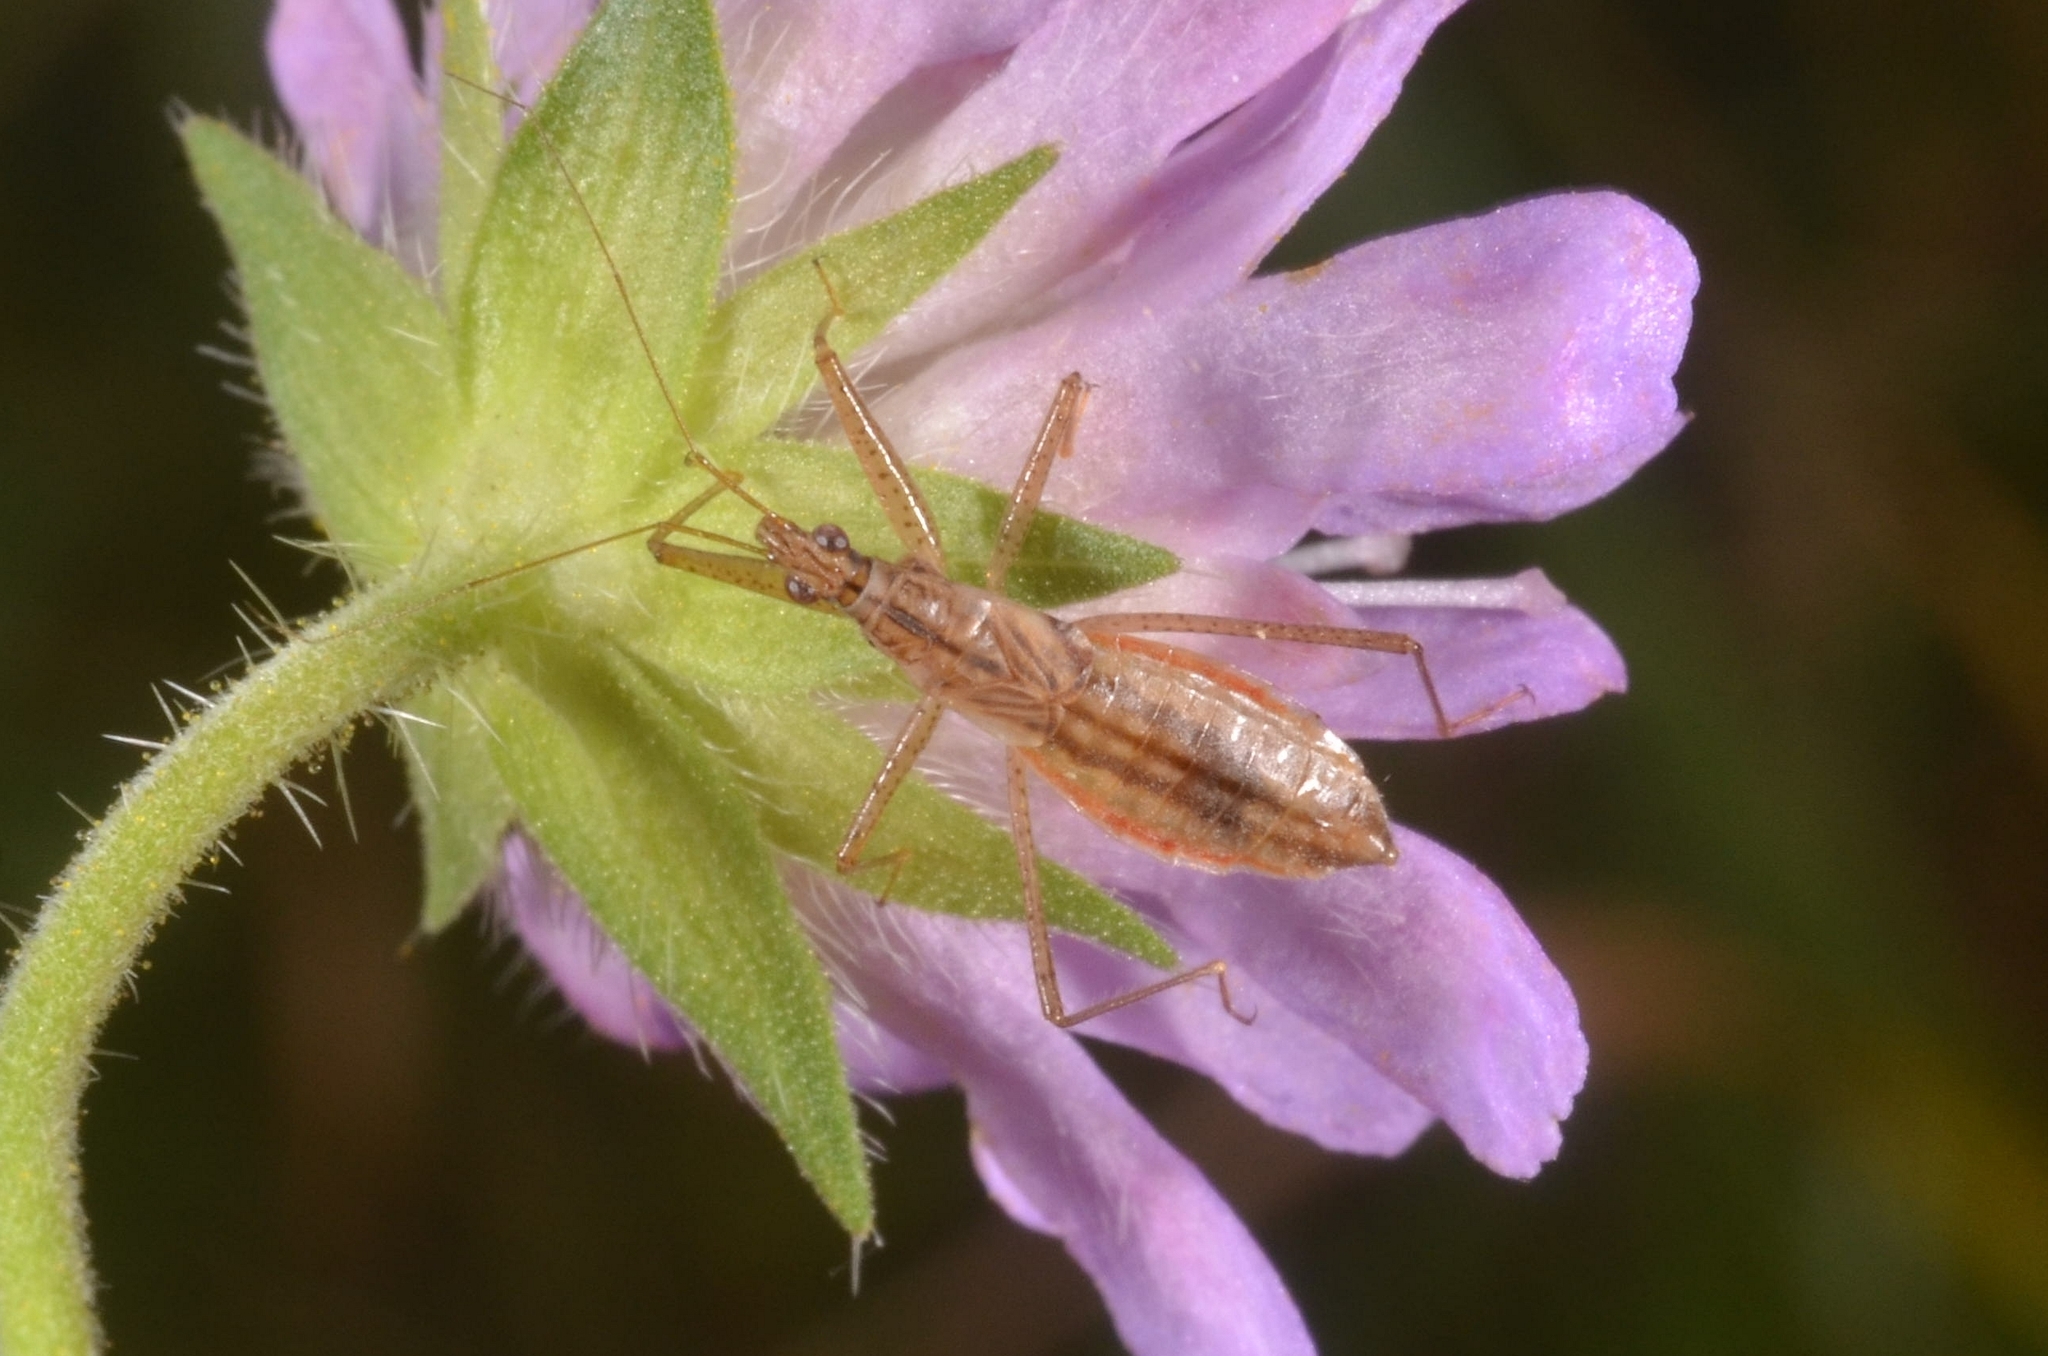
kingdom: Animalia
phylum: Arthropoda
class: Insecta
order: Hemiptera
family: Nabidae
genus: Nabis
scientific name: Nabis limbatus
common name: Marsh damselbug
